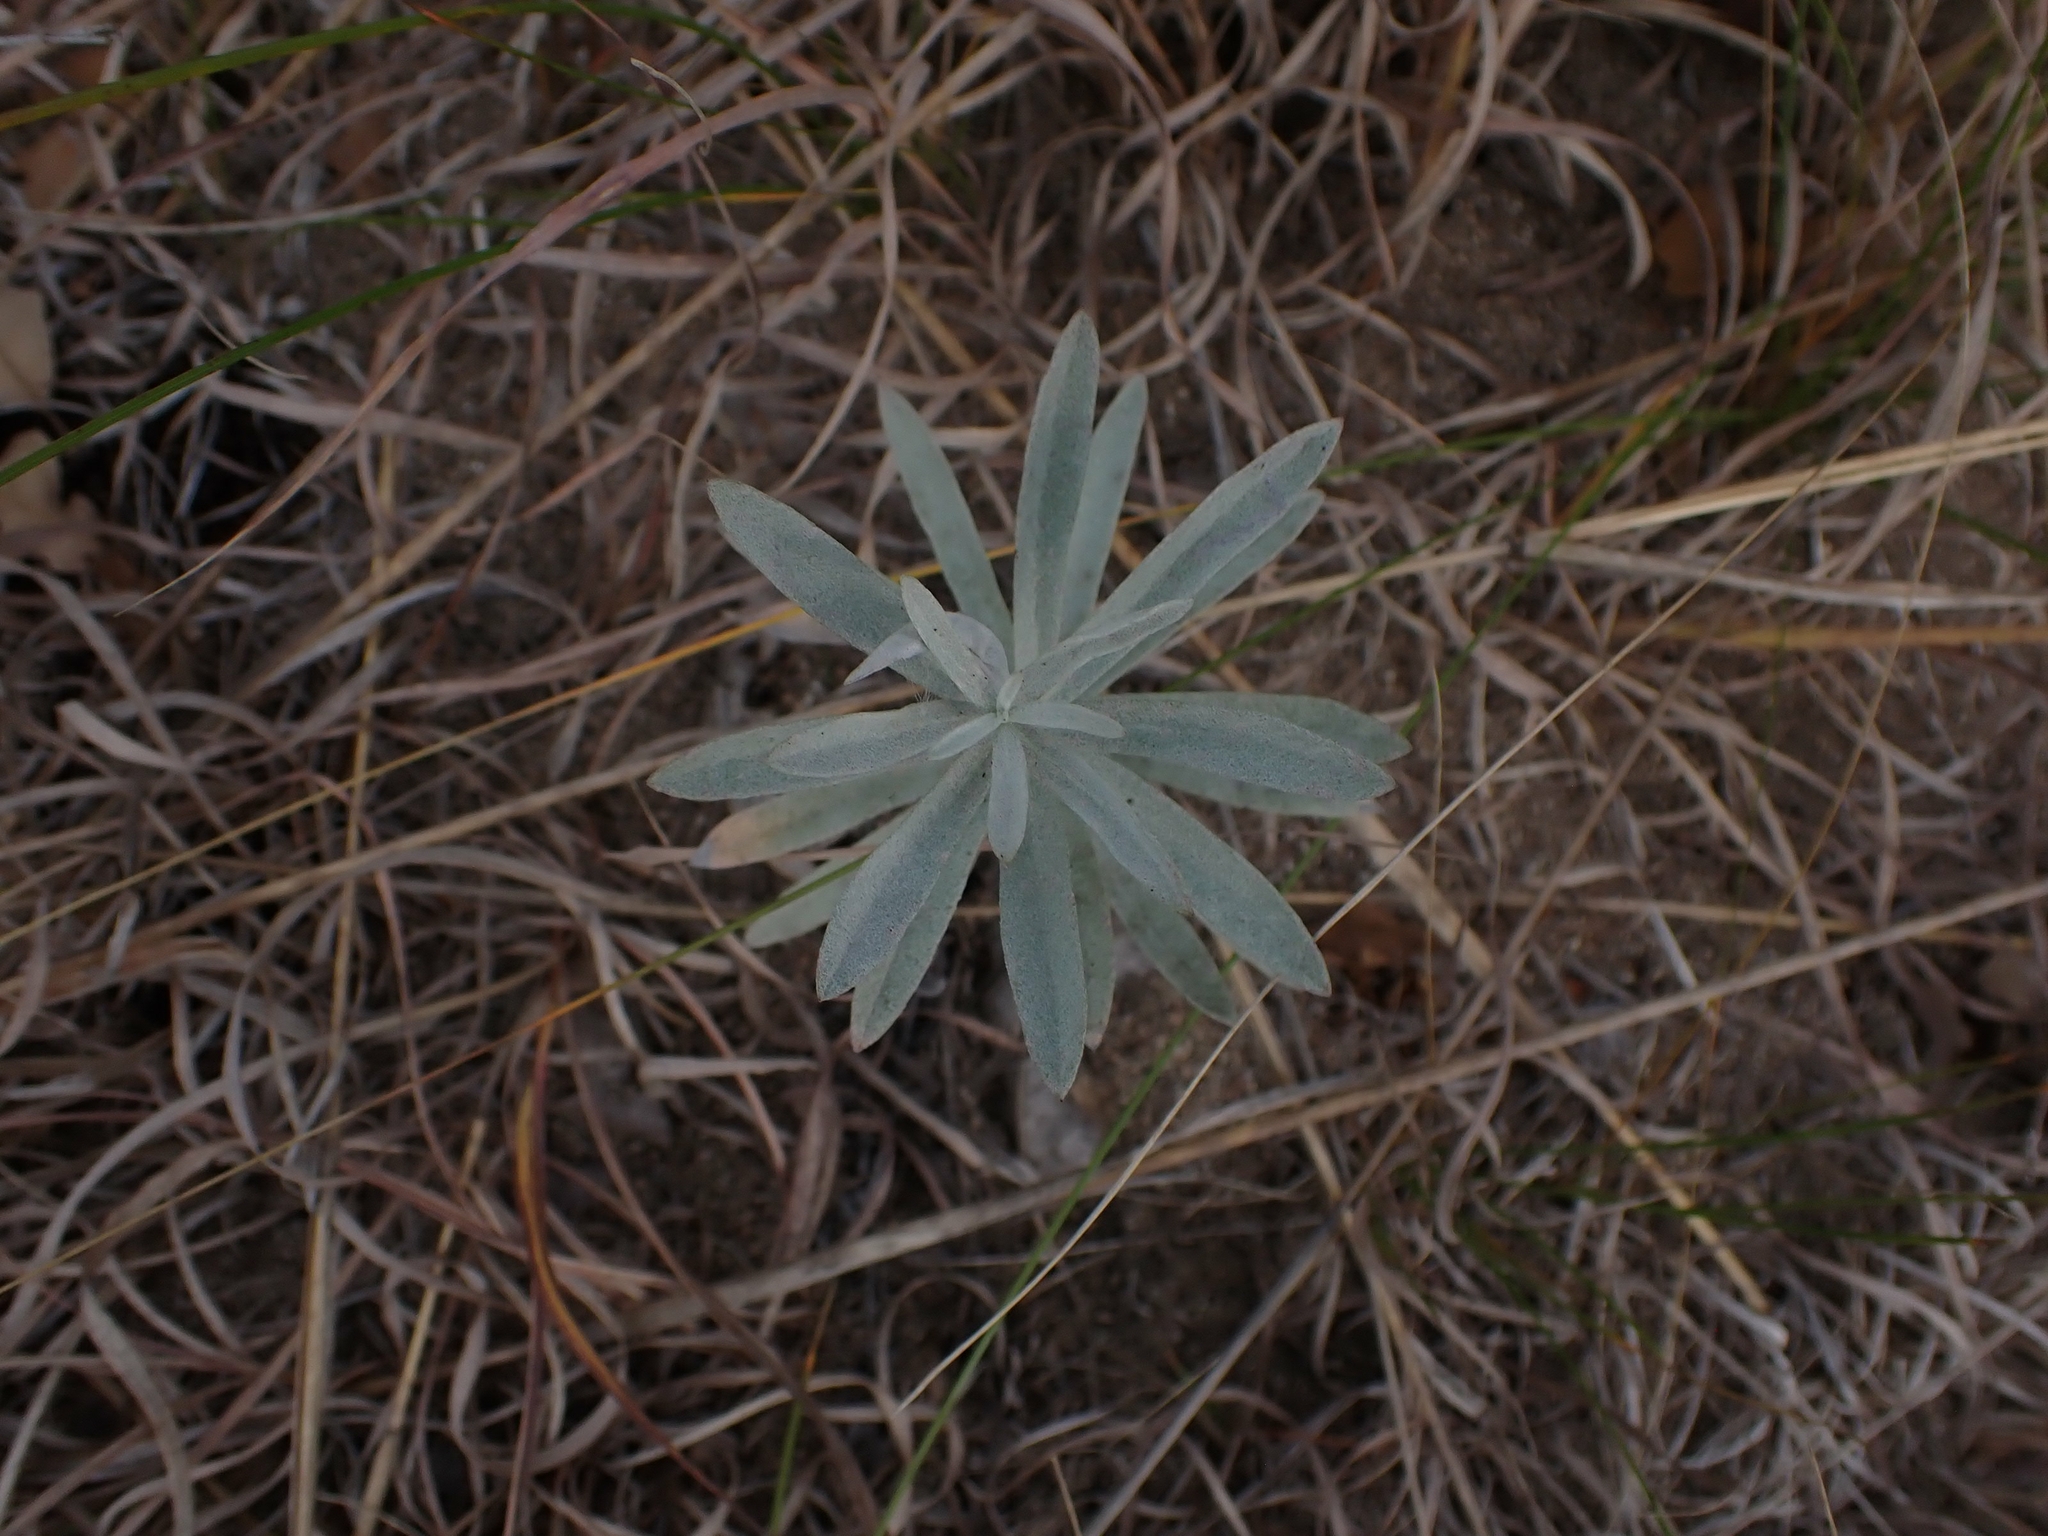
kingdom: Plantae
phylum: Tracheophyta
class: Magnoliopsida
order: Asterales
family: Asteraceae
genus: Artemisia
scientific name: Artemisia ludoviciana
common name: Western mugwort
